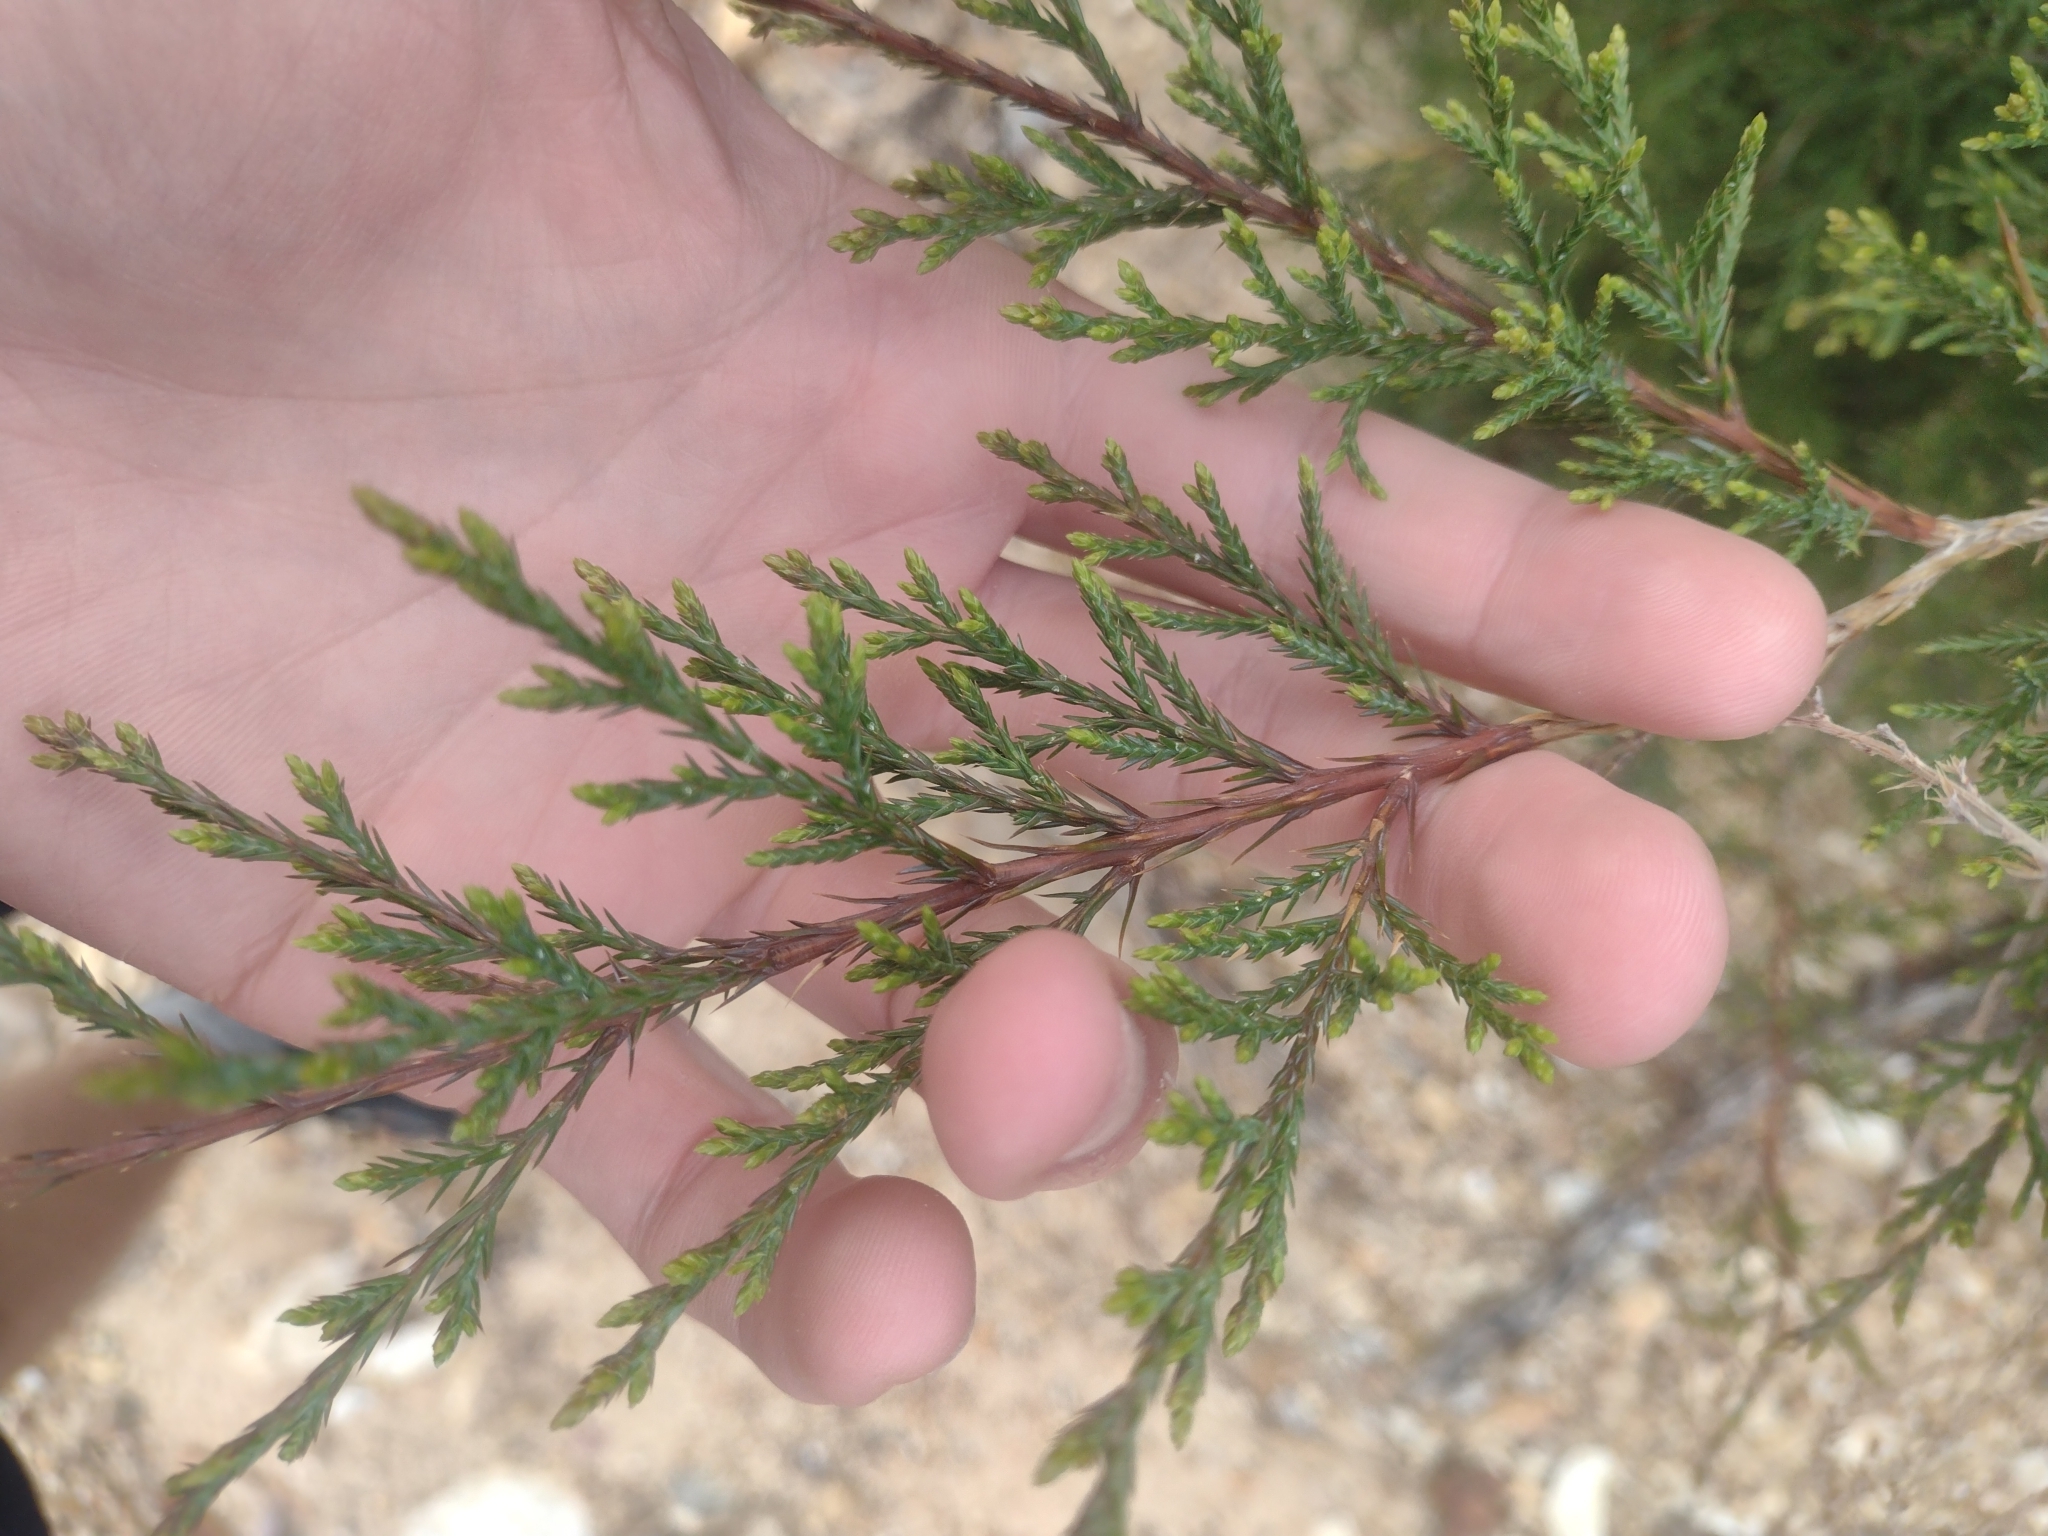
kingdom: Plantae
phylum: Tracheophyta
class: Pinopsida
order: Pinales
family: Cupressaceae
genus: Juniperus
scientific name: Juniperus virginiana
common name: Red juniper
